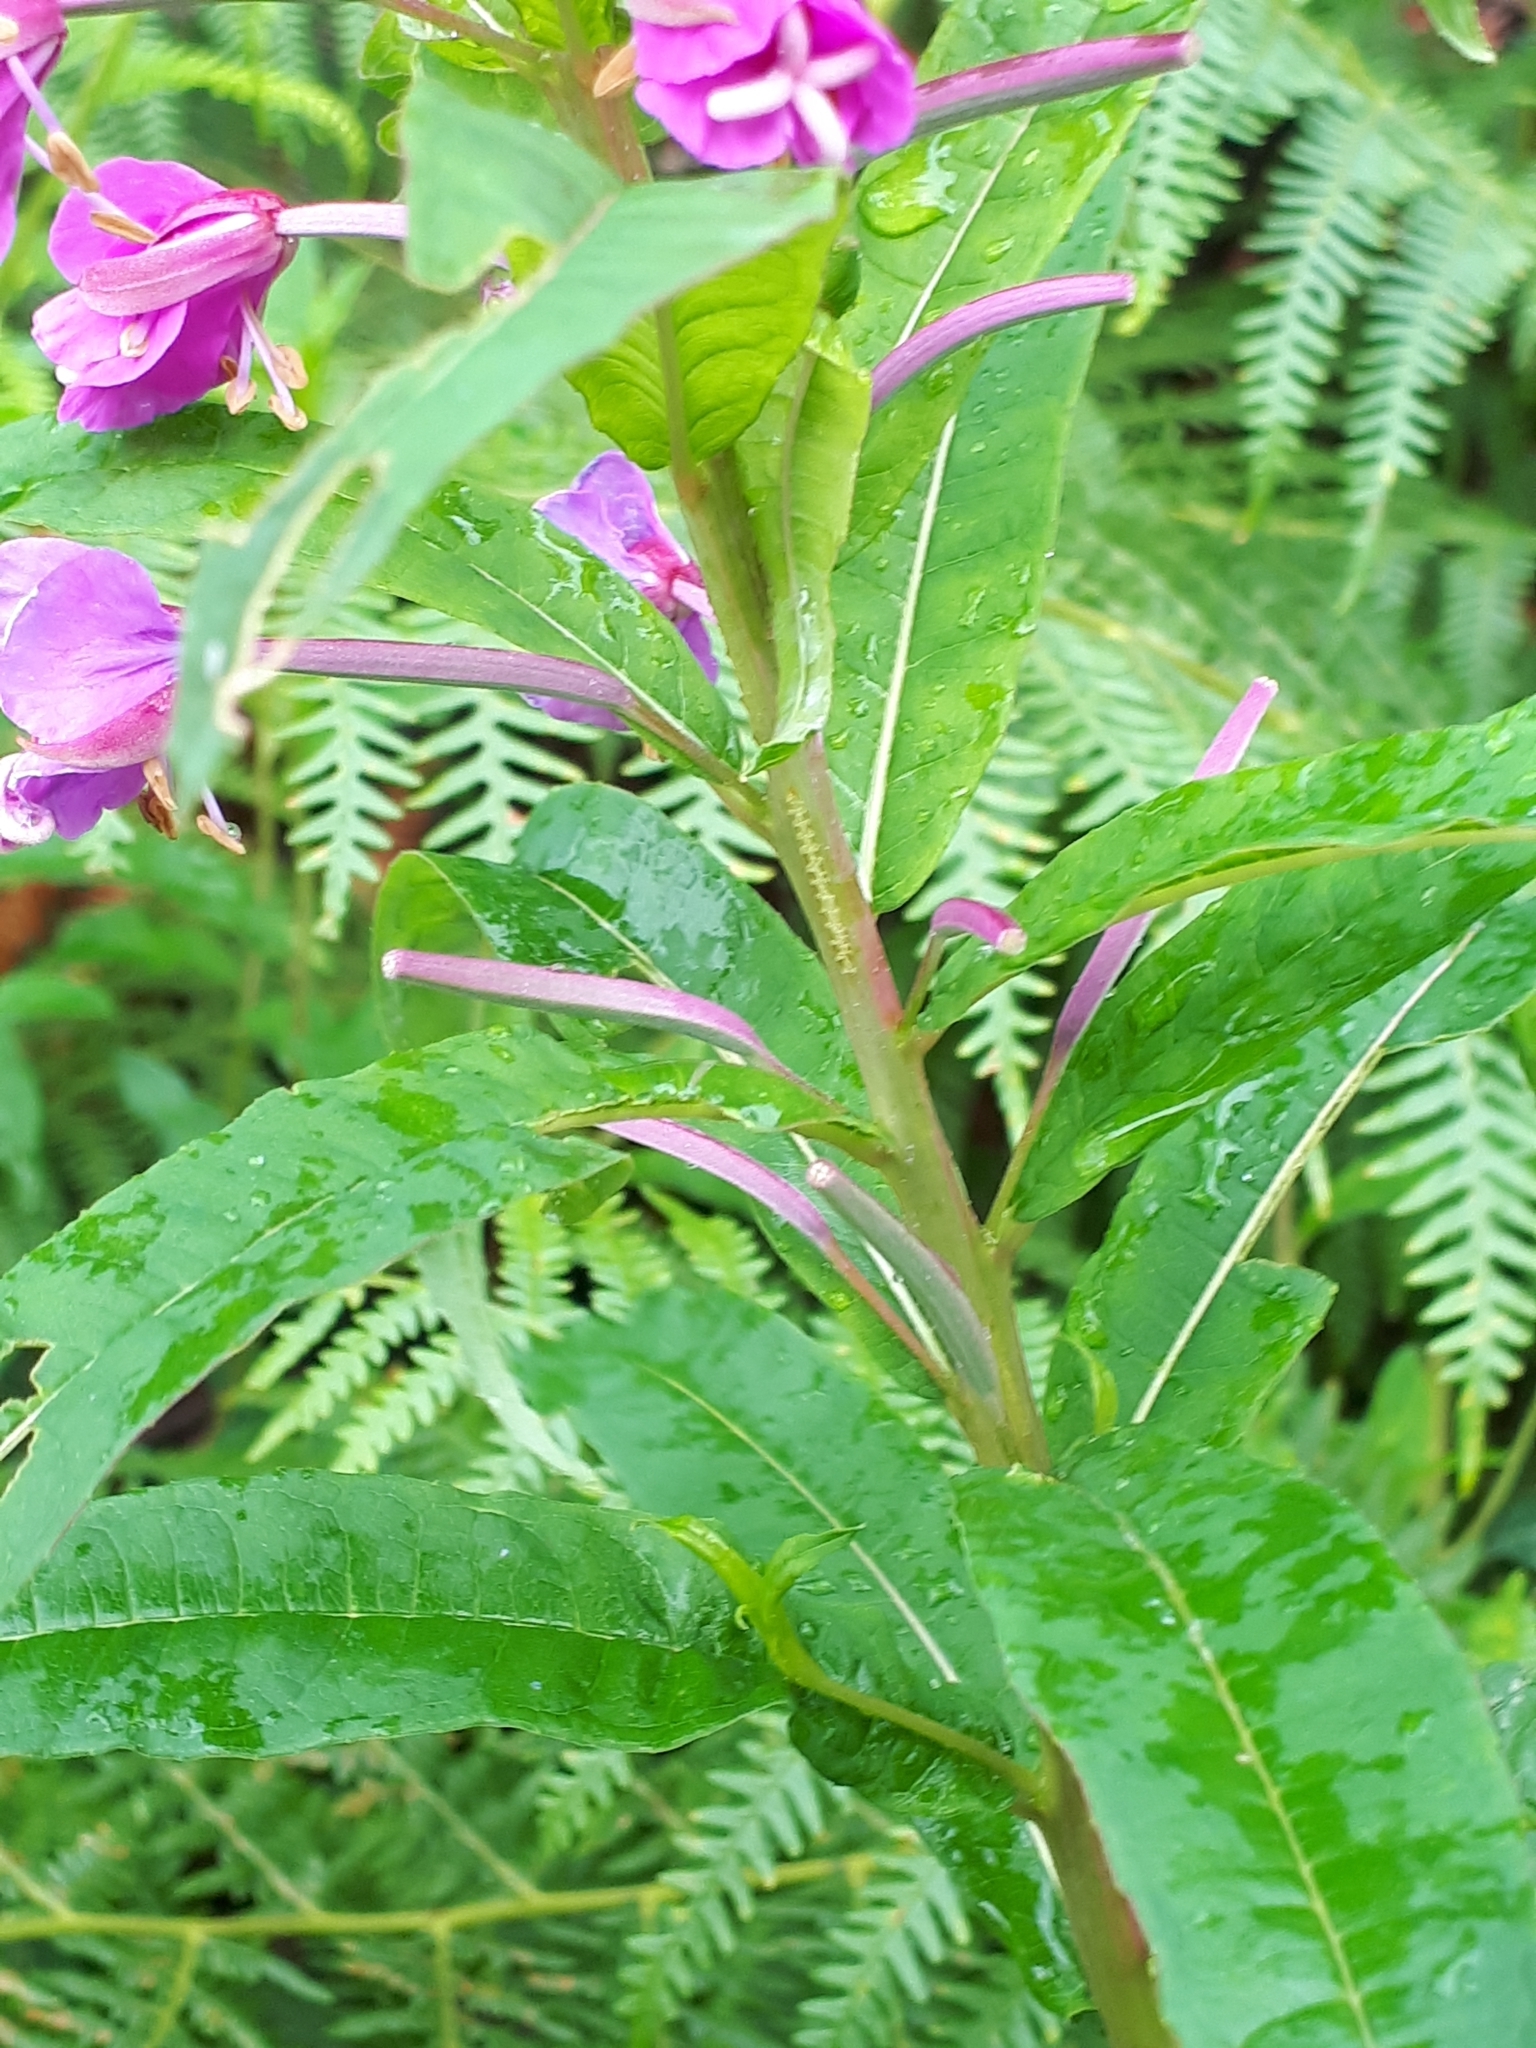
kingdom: Plantae
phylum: Tracheophyta
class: Magnoliopsida
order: Myrtales
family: Onagraceae
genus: Chamaenerion
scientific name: Chamaenerion angustifolium
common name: Fireweed
